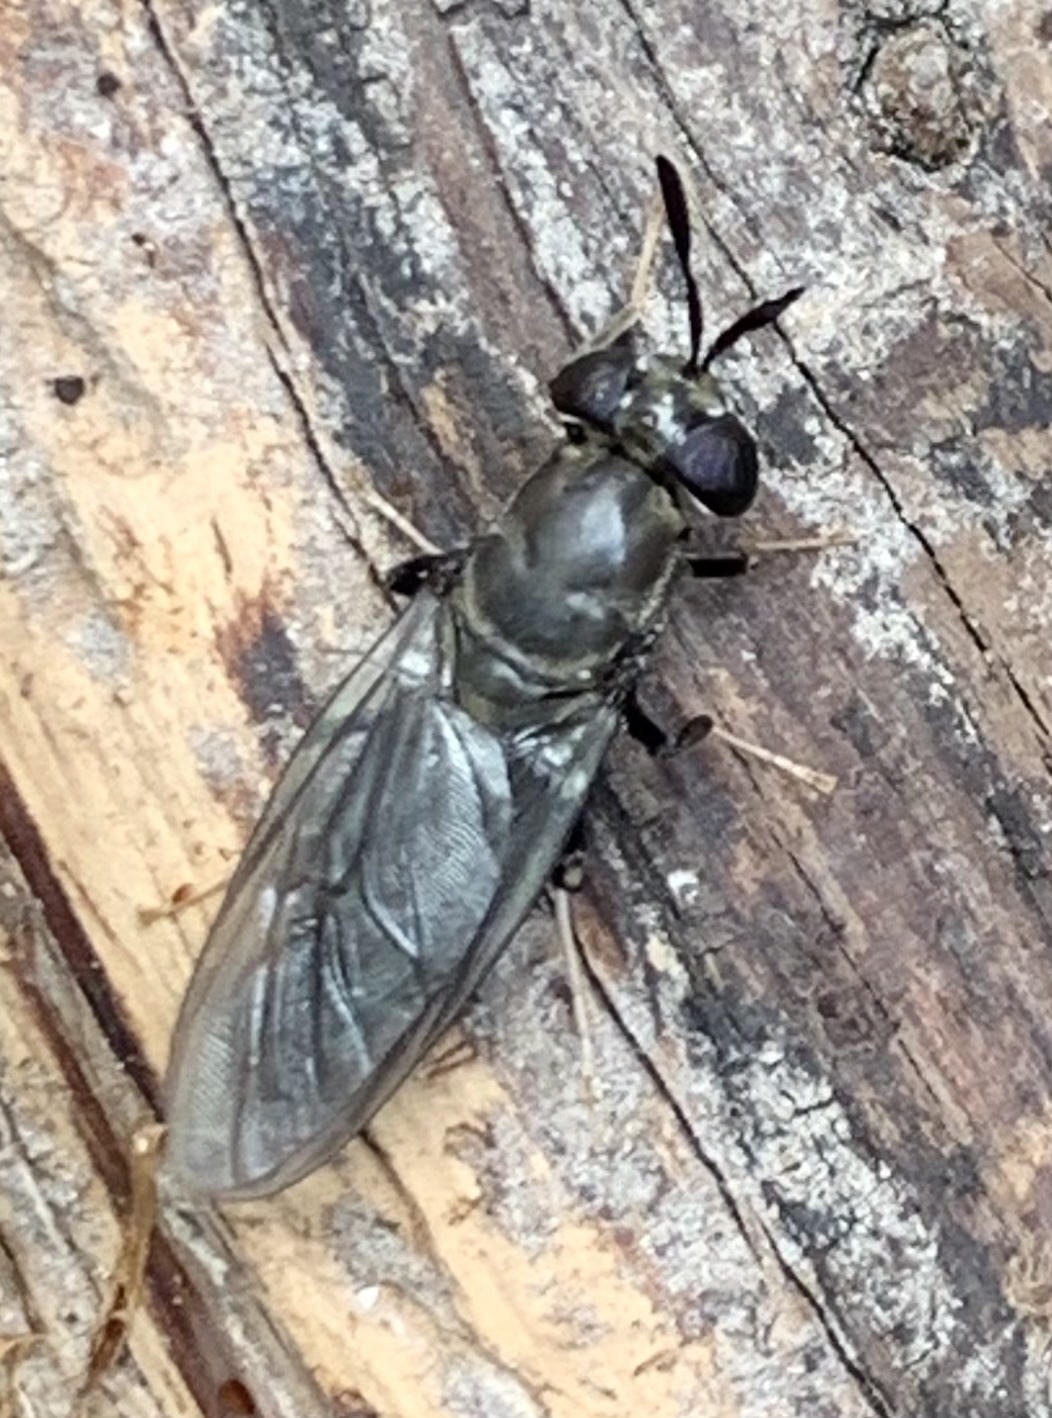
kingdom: Animalia
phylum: Arthropoda
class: Insecta
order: Diptera
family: Stratiomyidae
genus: Hermetia
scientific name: Hermetia illucens
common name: Black soldier fly
